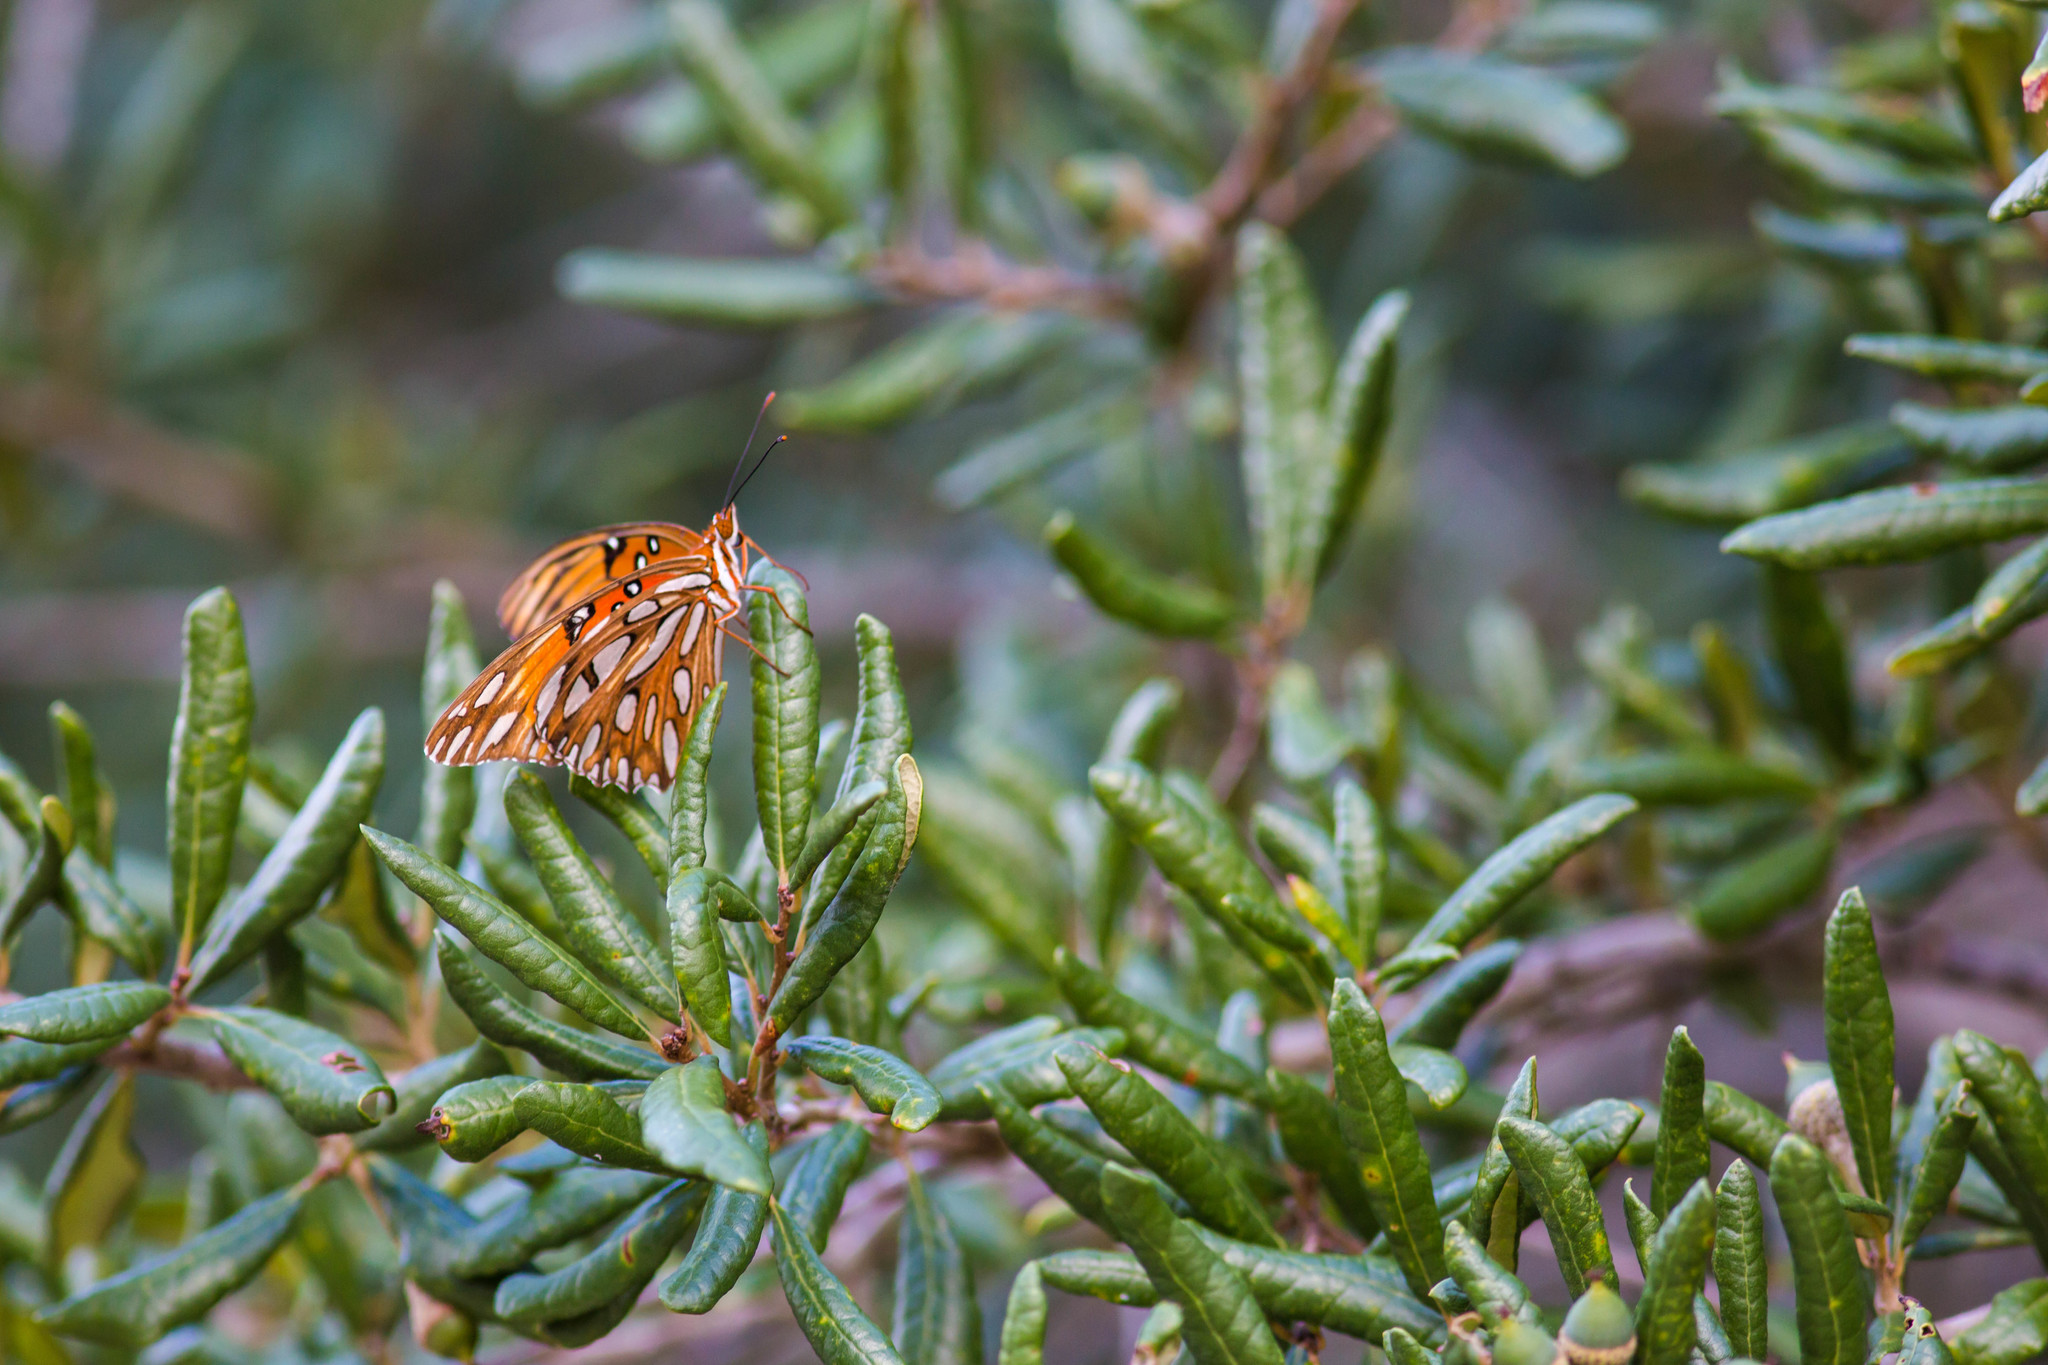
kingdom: Animalia
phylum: Arthropoda
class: Insecta
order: Lepidoptera
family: Nymphalidae
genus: Dione
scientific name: Dione vanillae
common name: Gulf fritillary
